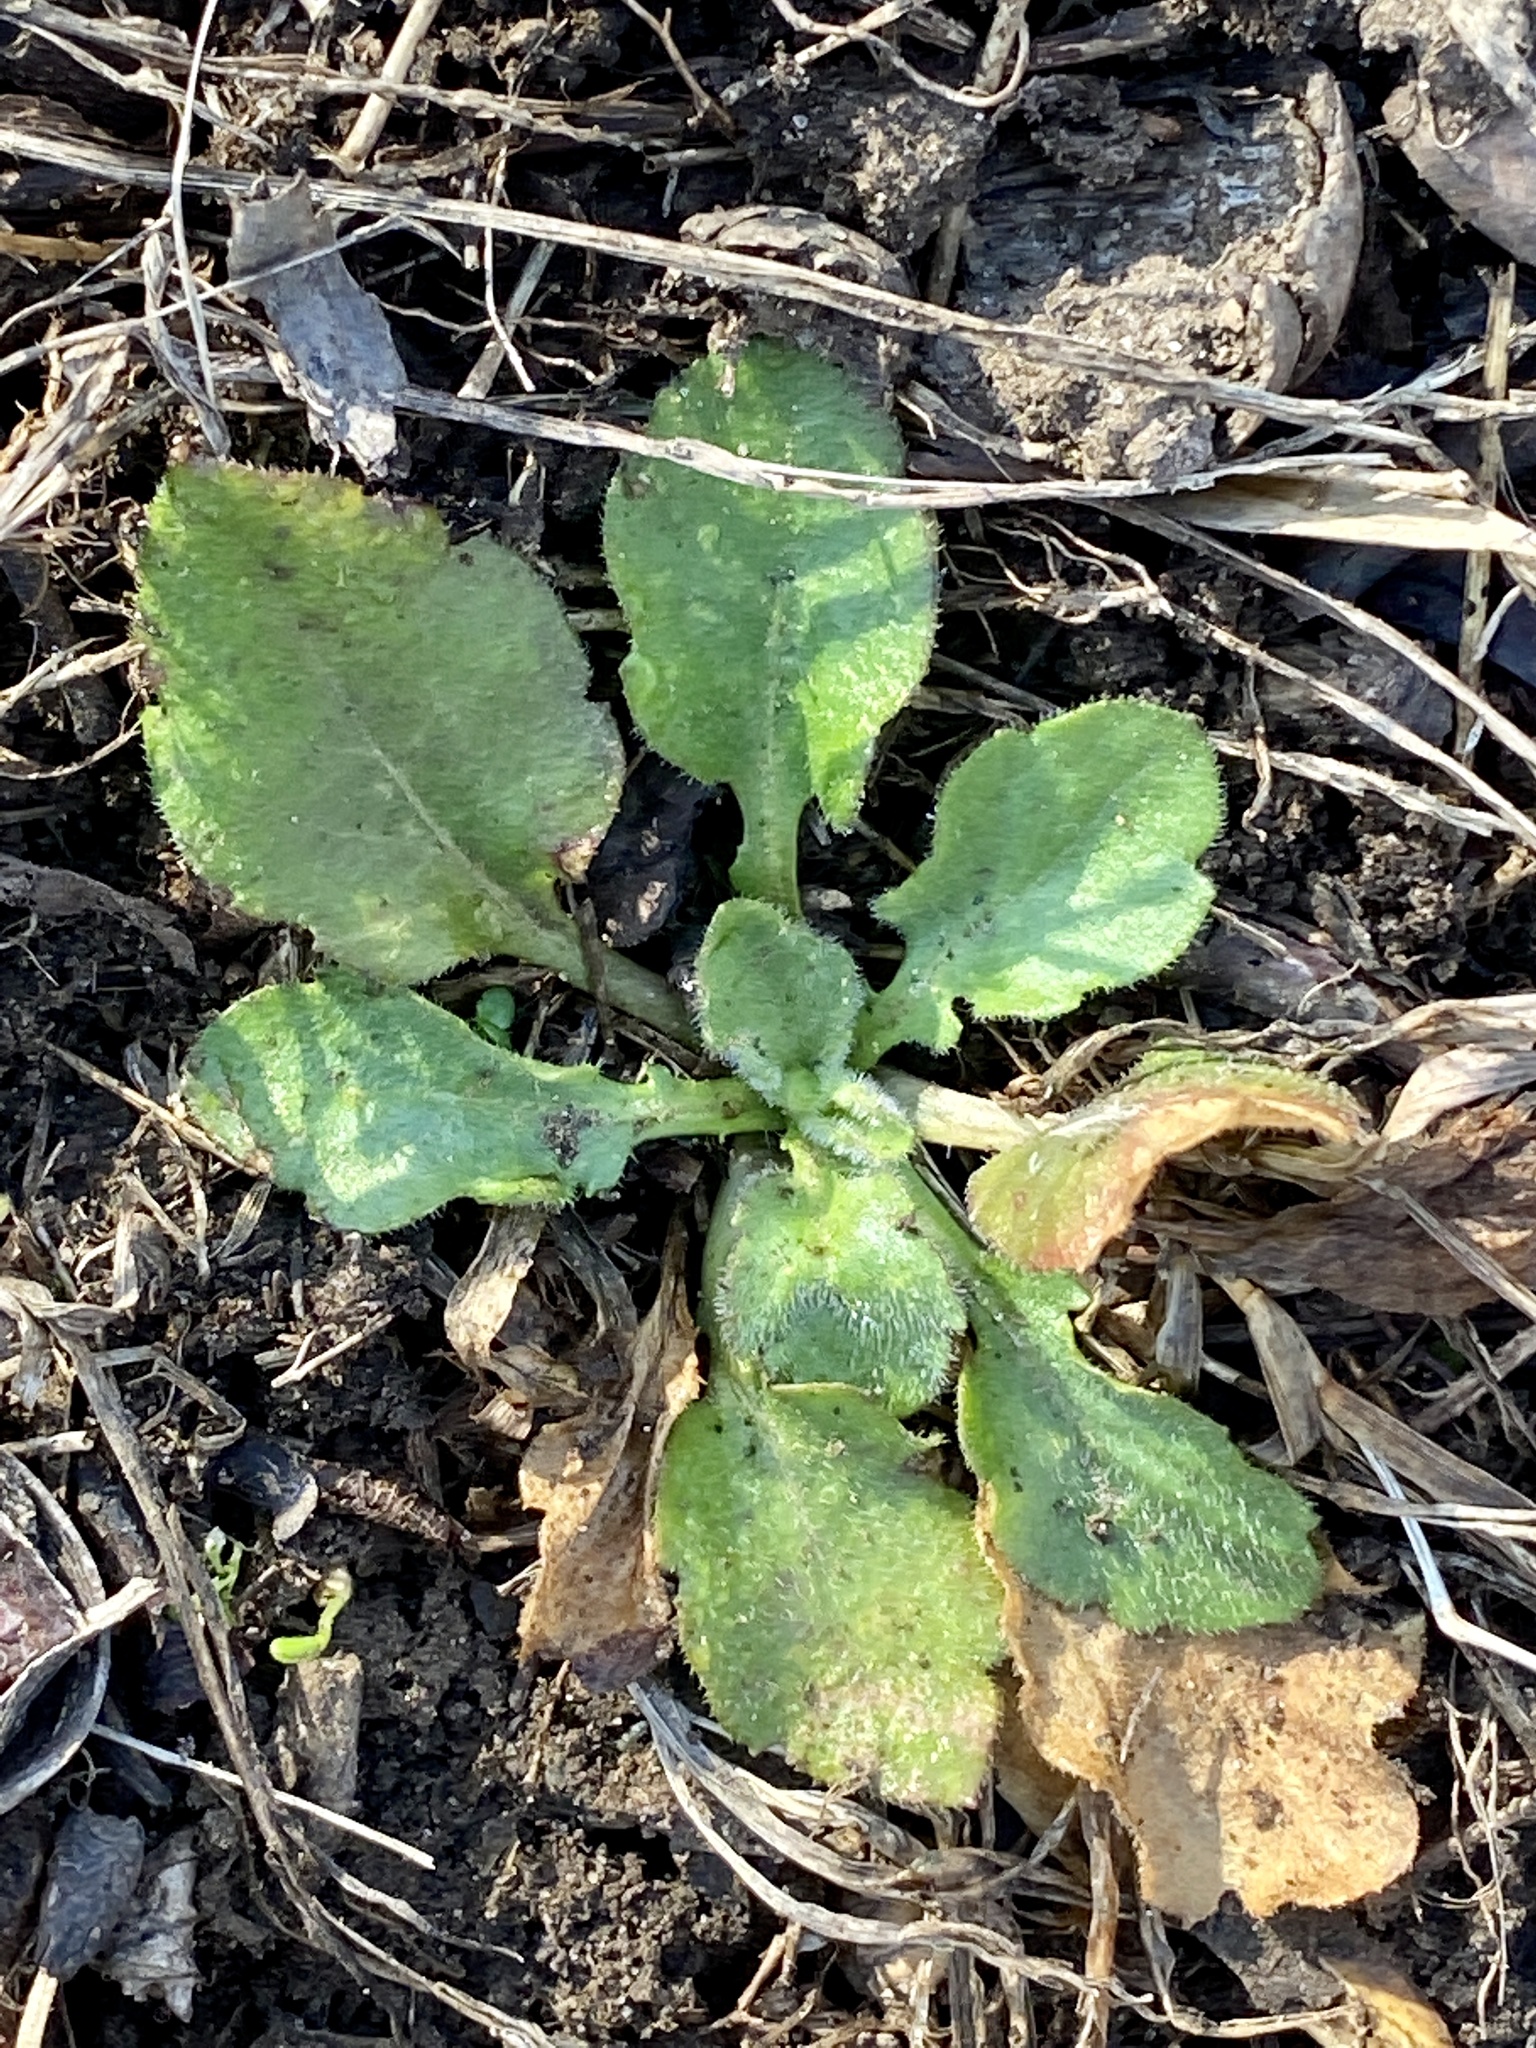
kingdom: Plantae
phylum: Tracheophyta
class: Magnoliopsida
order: Asterales
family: Asteraceae
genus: Erigeron
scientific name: Erigeron canadensis
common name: Canadian fleabane
